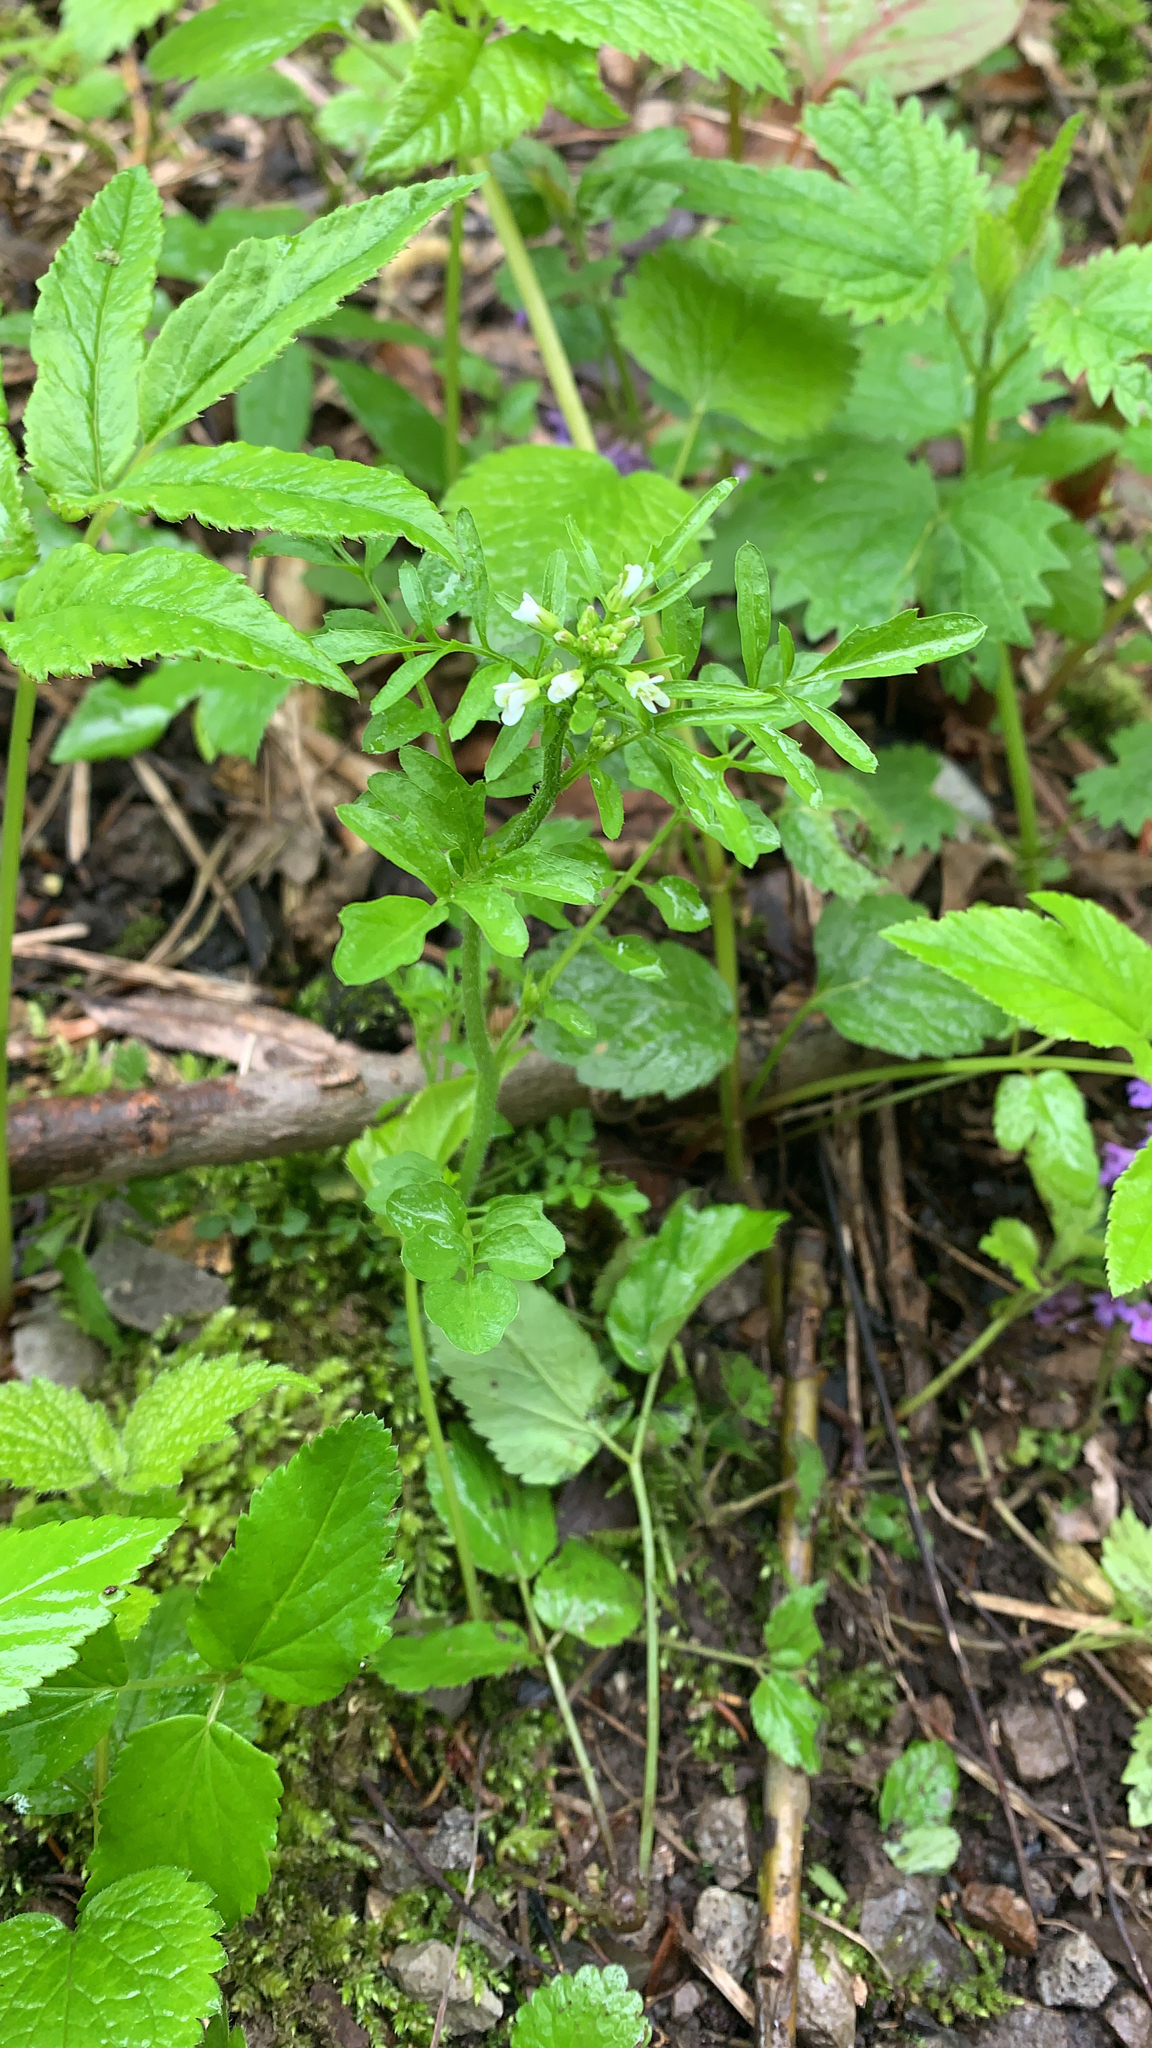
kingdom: Plantae
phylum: Tracheophyta
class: Magnoliopsida
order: Brassicales
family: Brassicaceae
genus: Cardamine
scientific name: Cardamine flexuosa
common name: Woodland bittercress
